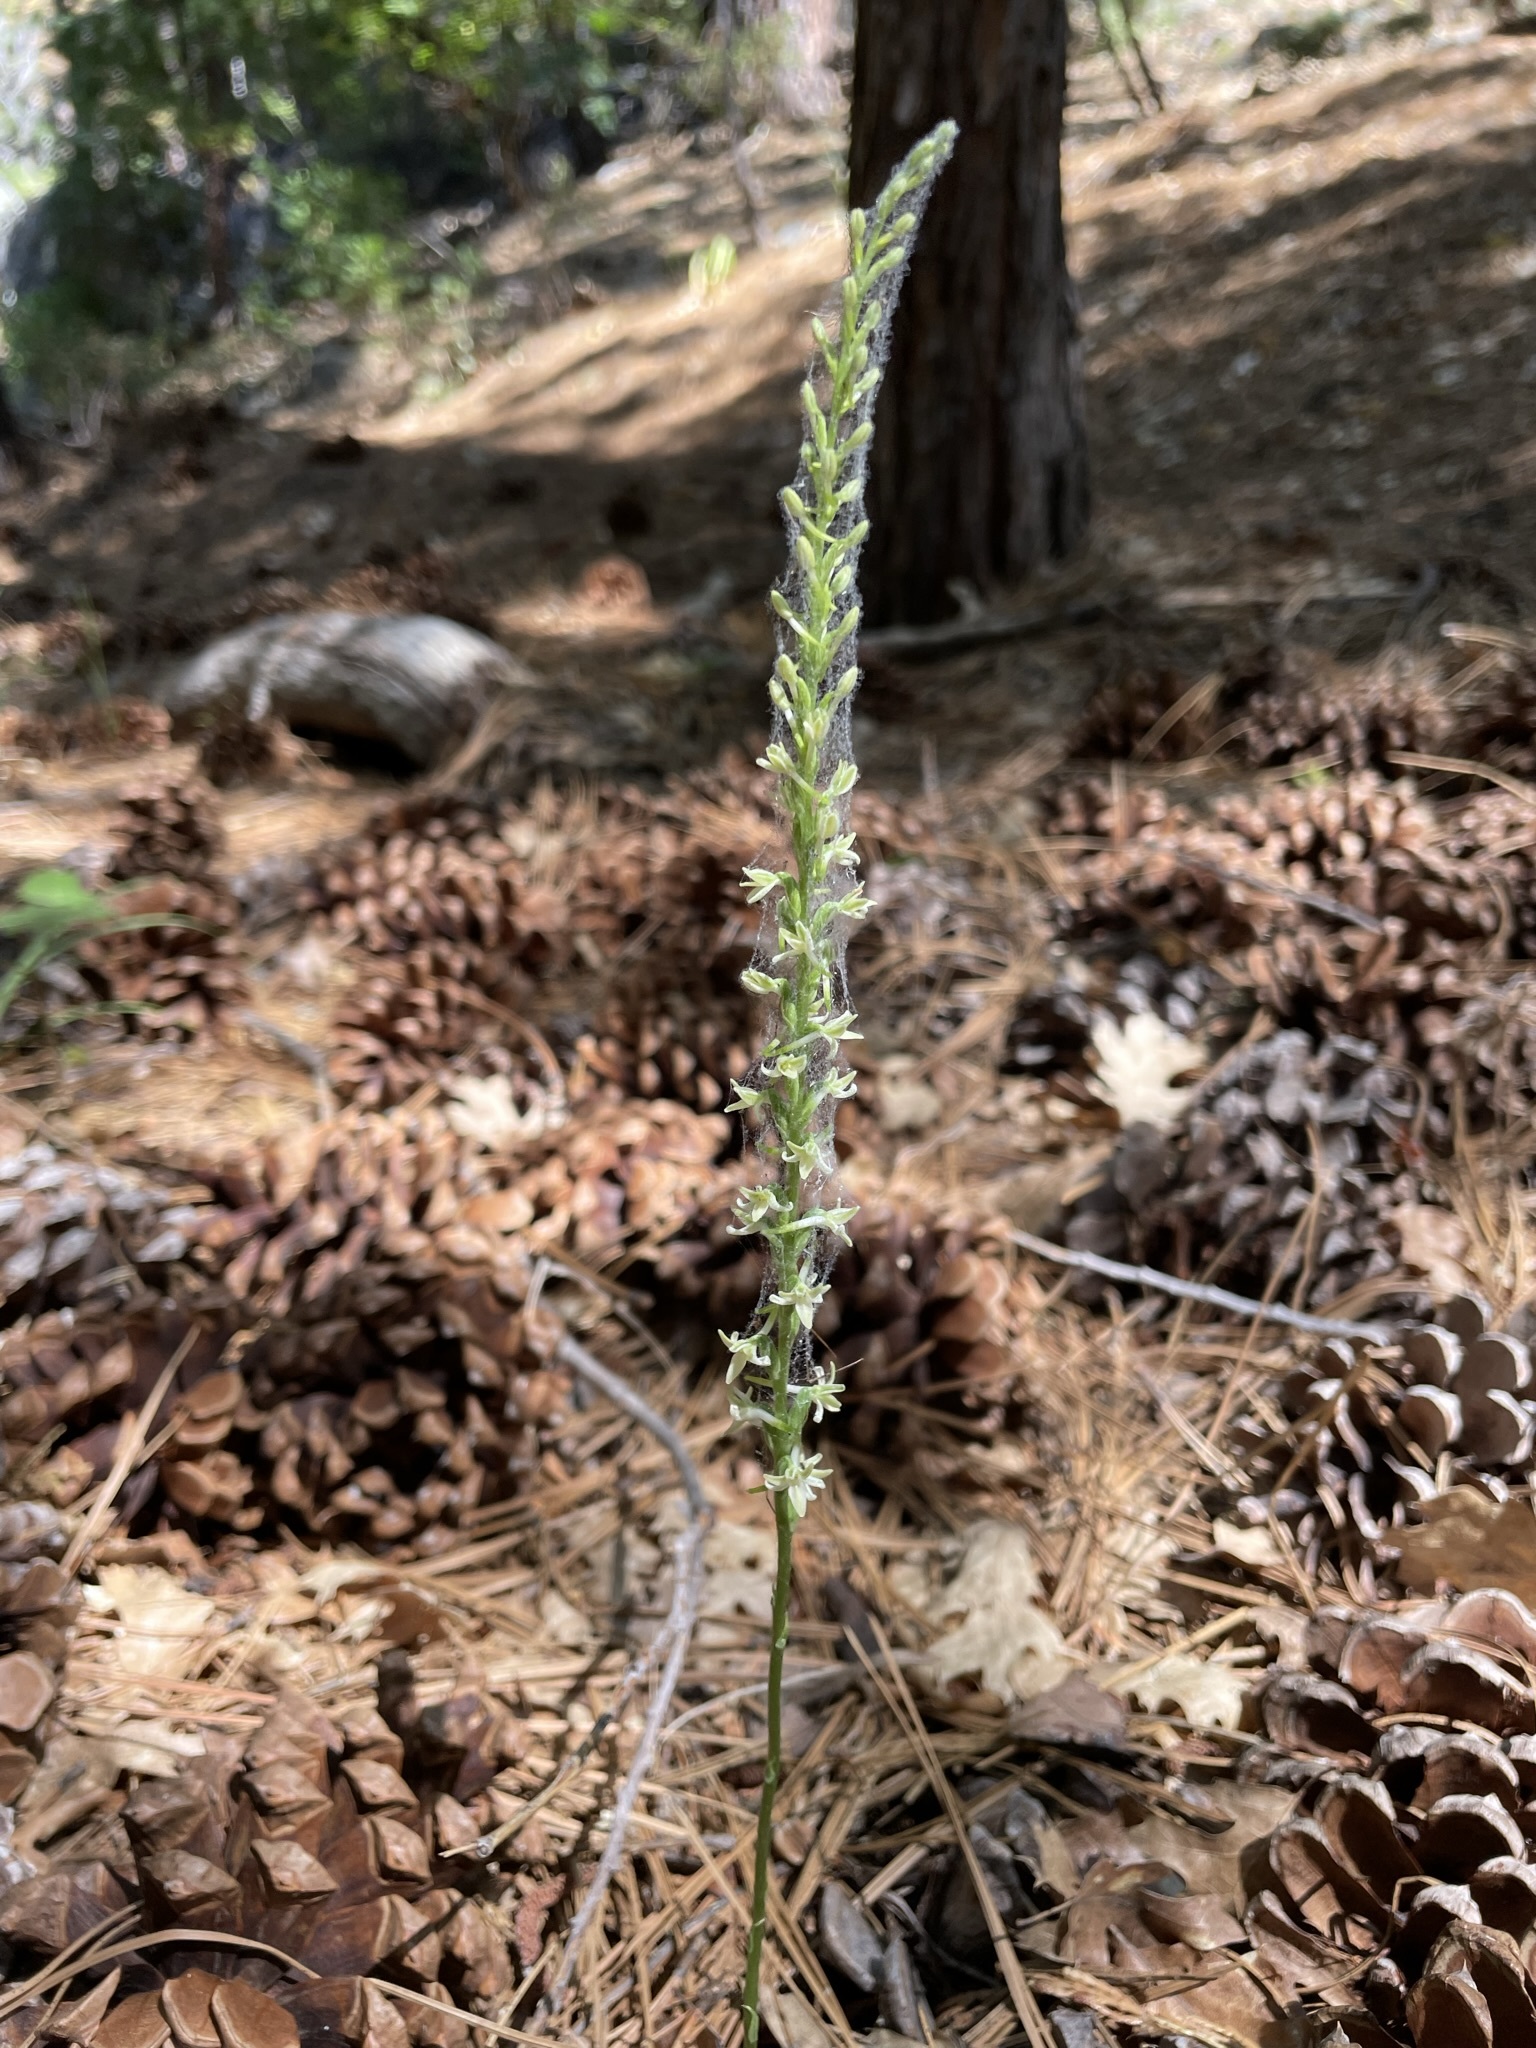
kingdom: Plantae
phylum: Tracheophyta
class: Liliopsida
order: Asparagales
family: Orchidaceae
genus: Platanthera
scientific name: Platanthera transversa
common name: Royal rein orchid
